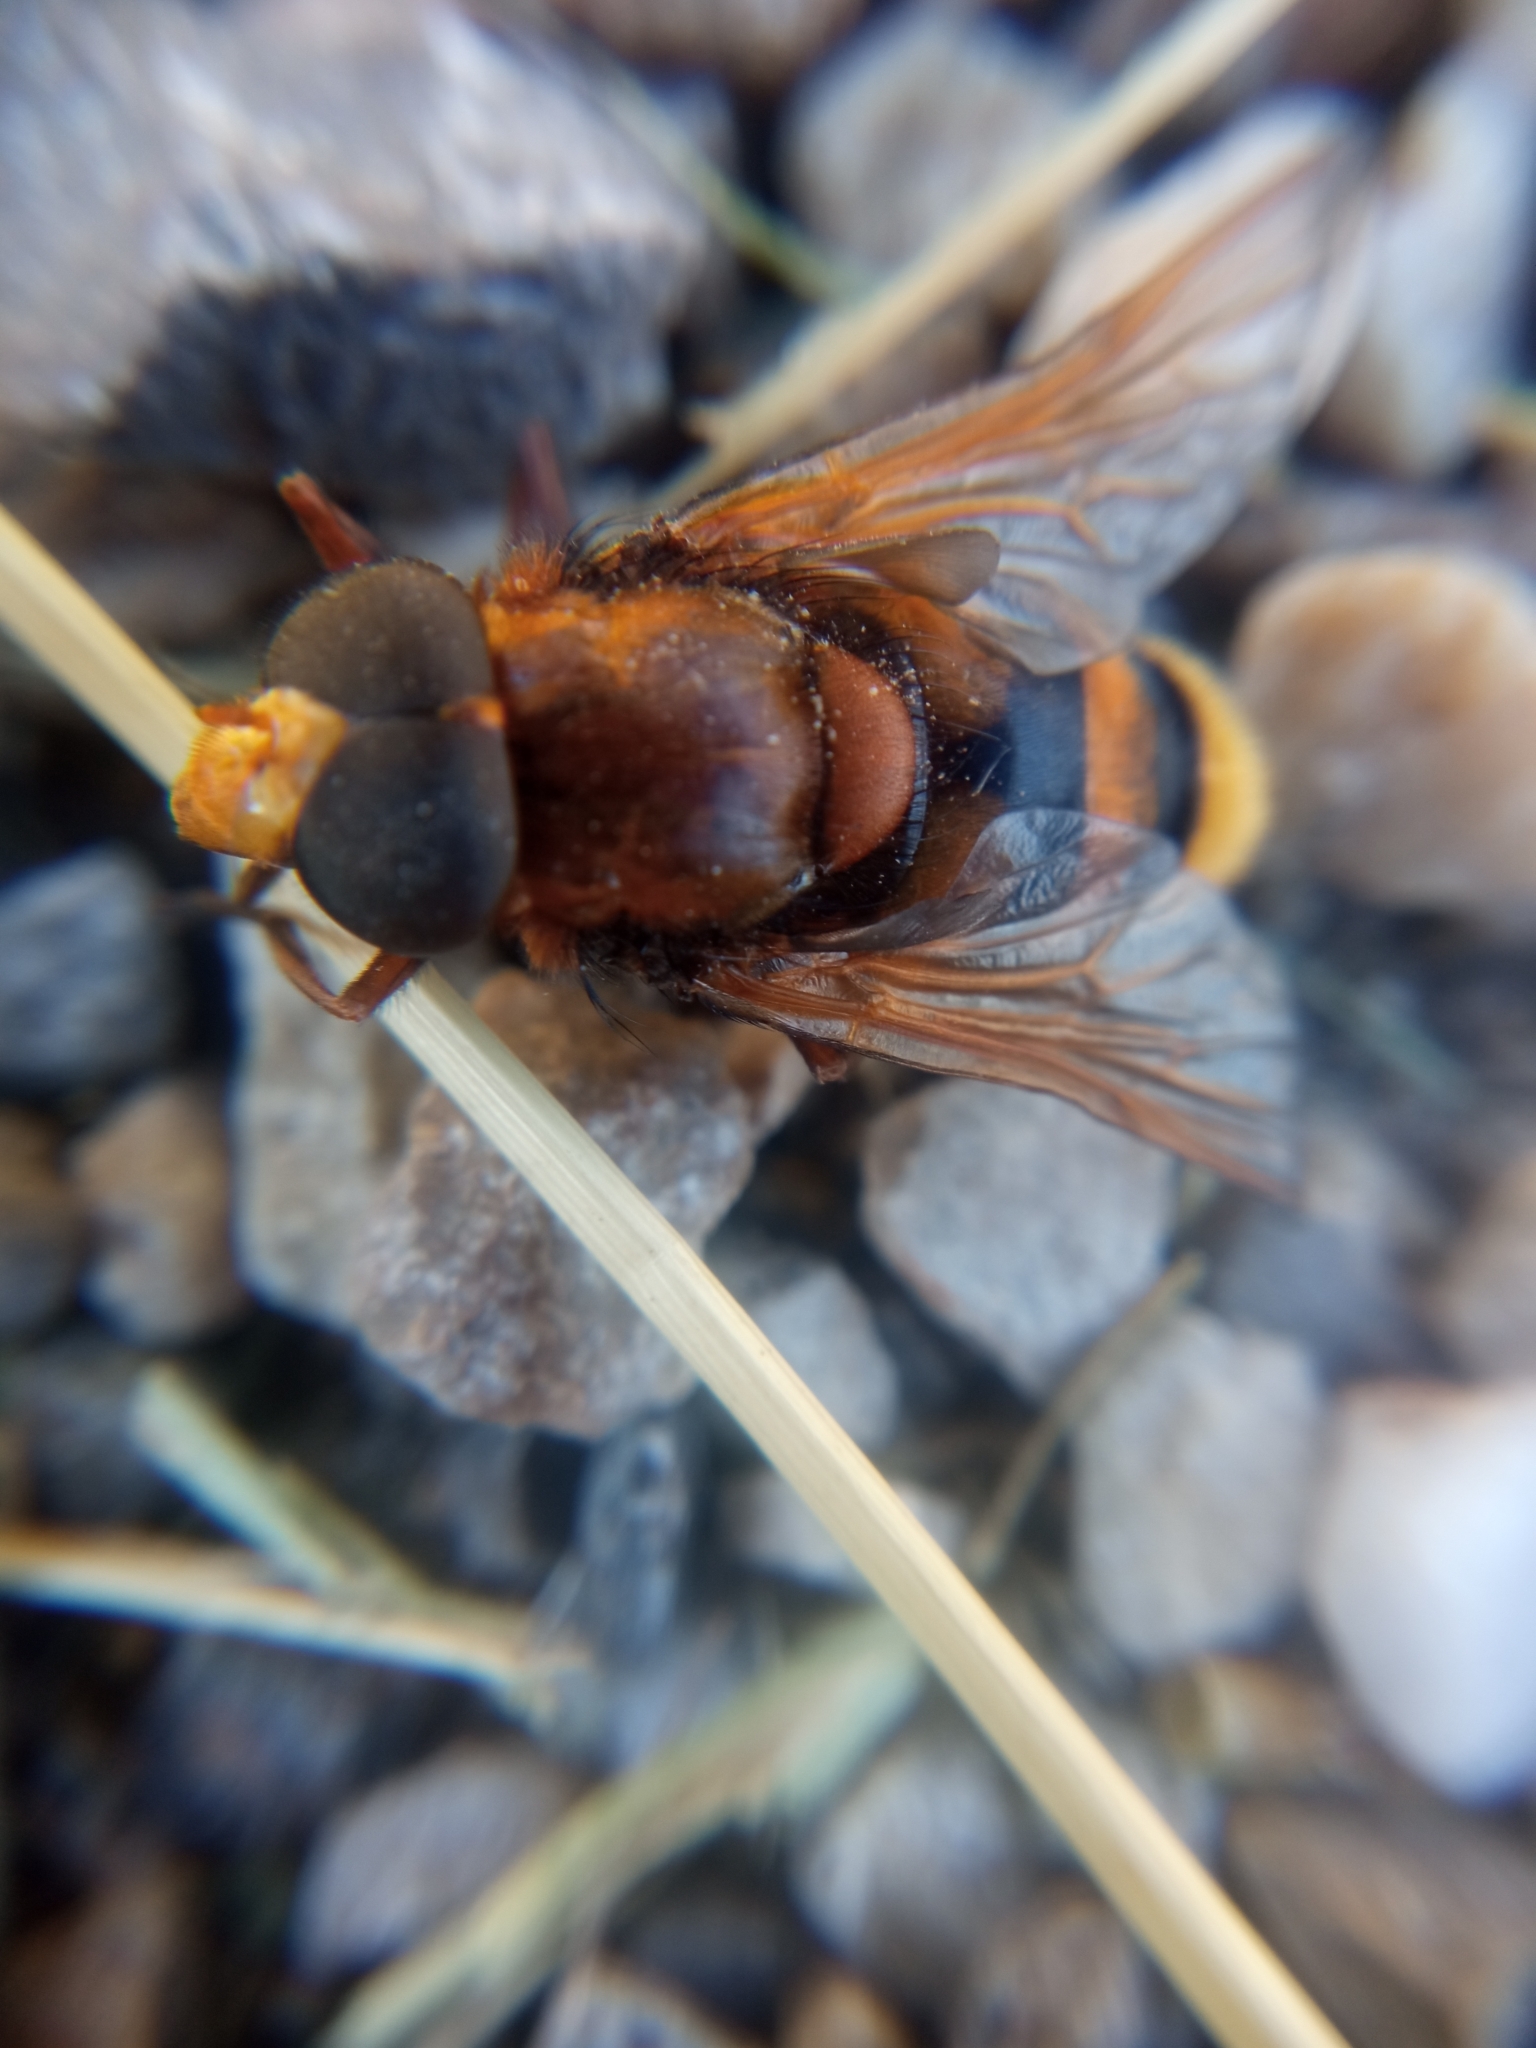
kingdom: Animalia
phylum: Arthropoda
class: Insecta
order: Diptera
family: Syrphidae
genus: Volucella
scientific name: Volucella zonaria
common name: Hornet hoverfly
